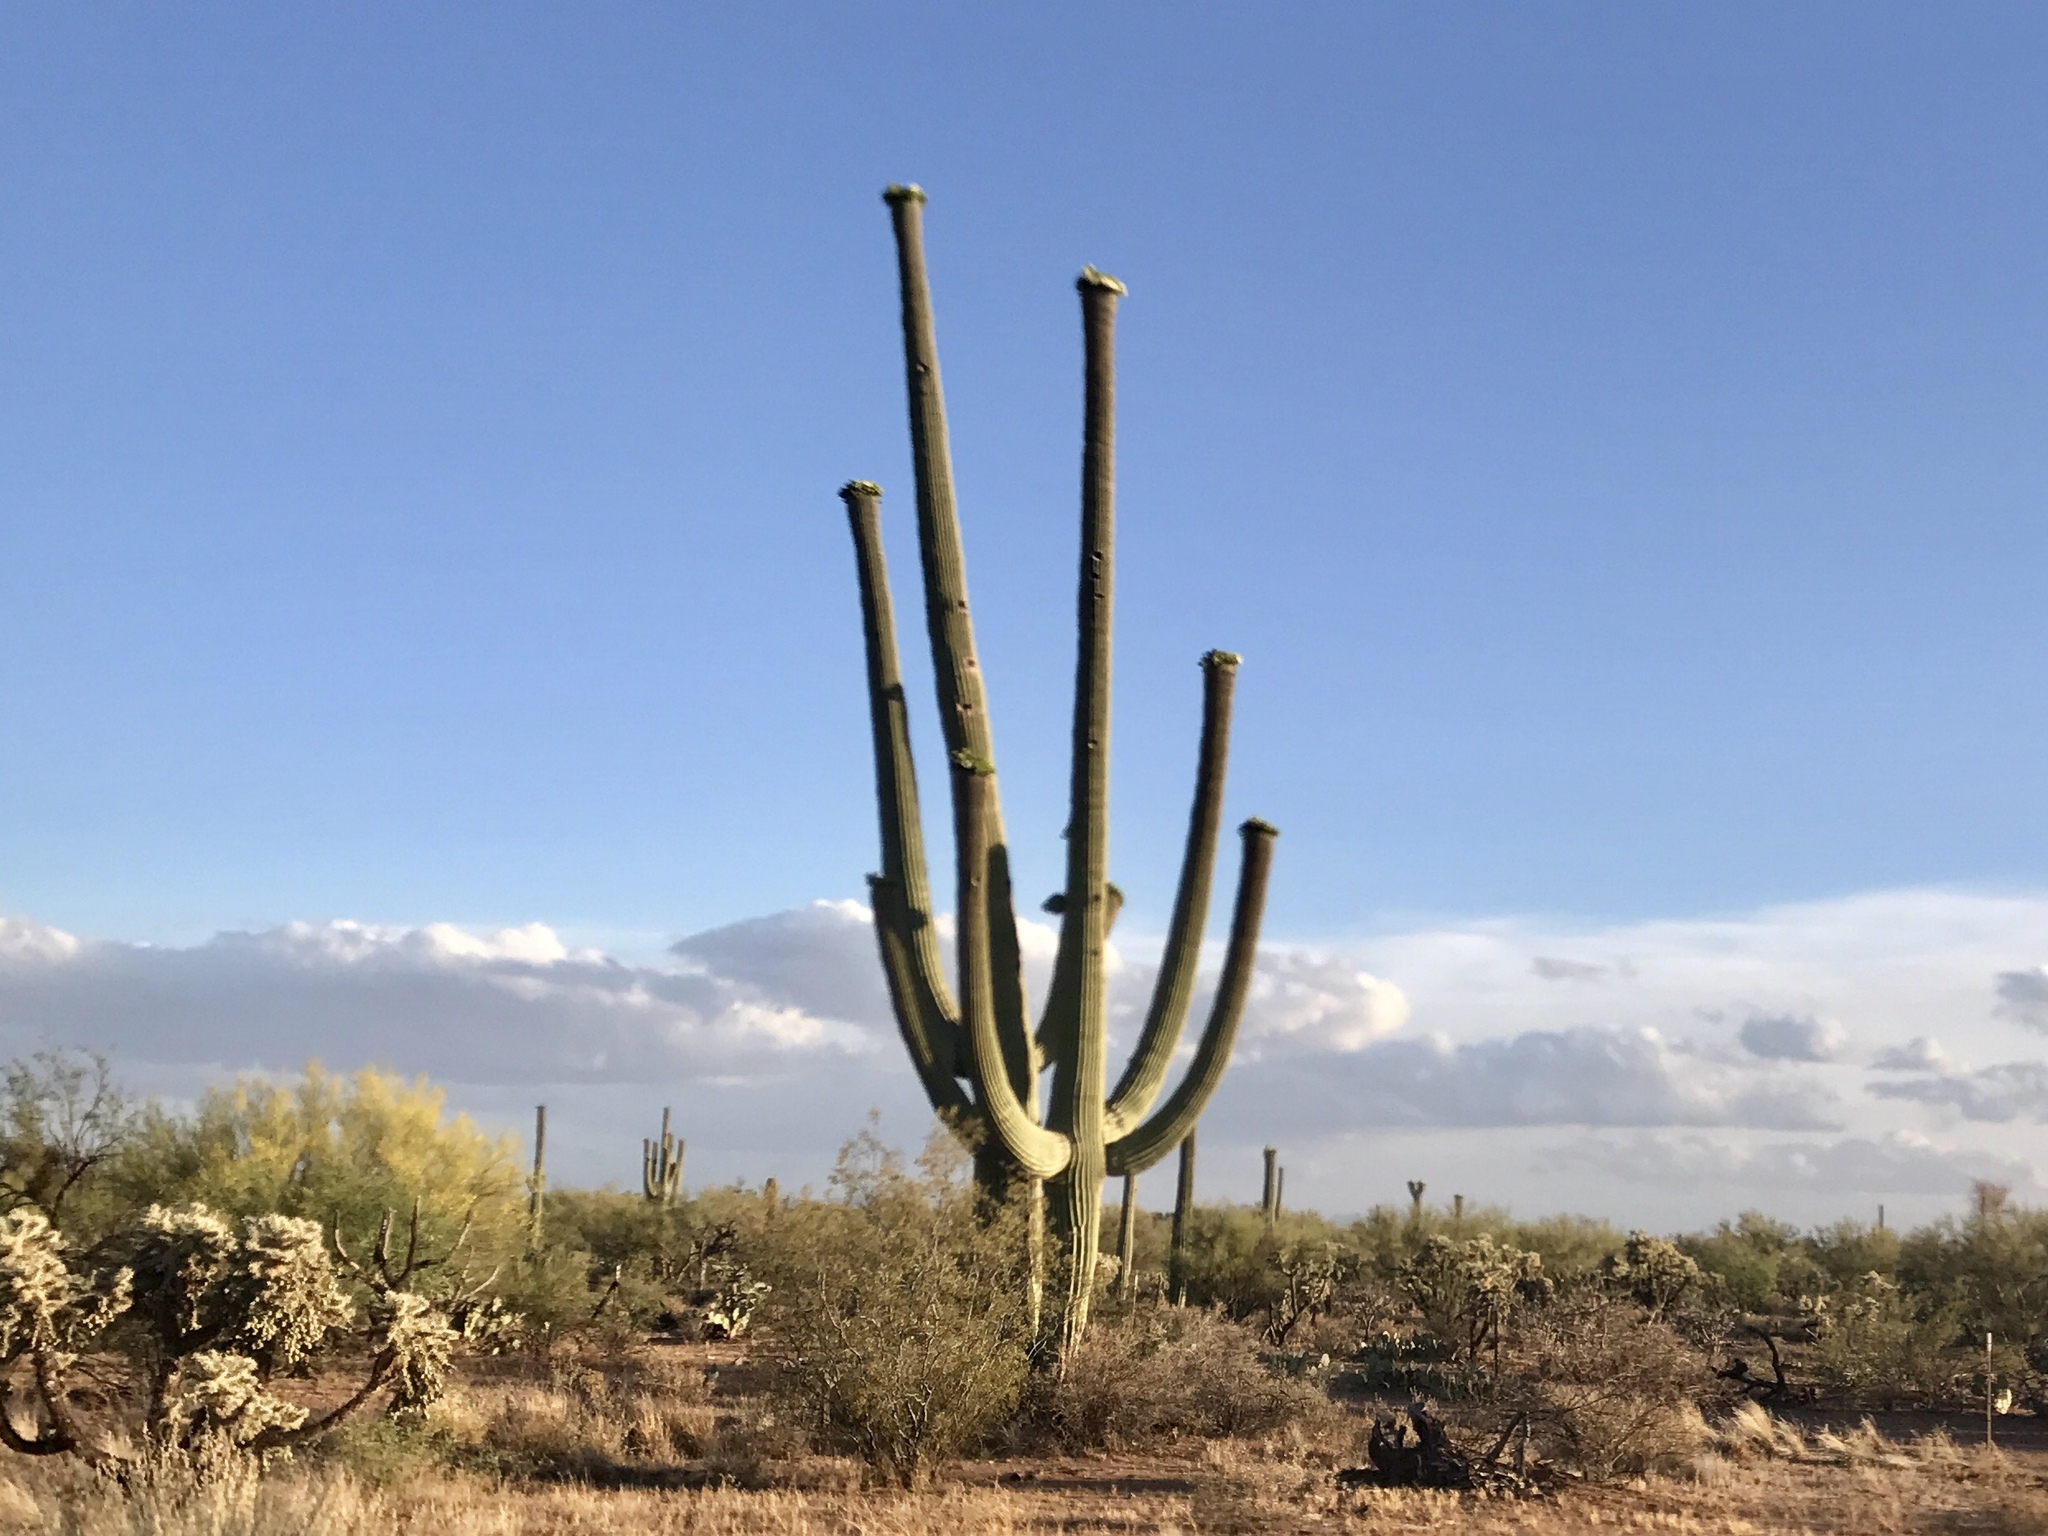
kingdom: Plantae
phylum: Tracheophyta
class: Magnoliopsida
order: Caryophyllales
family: Cactaceae
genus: Carnegiea
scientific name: Carnegiea gigantea
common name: Saguaro
